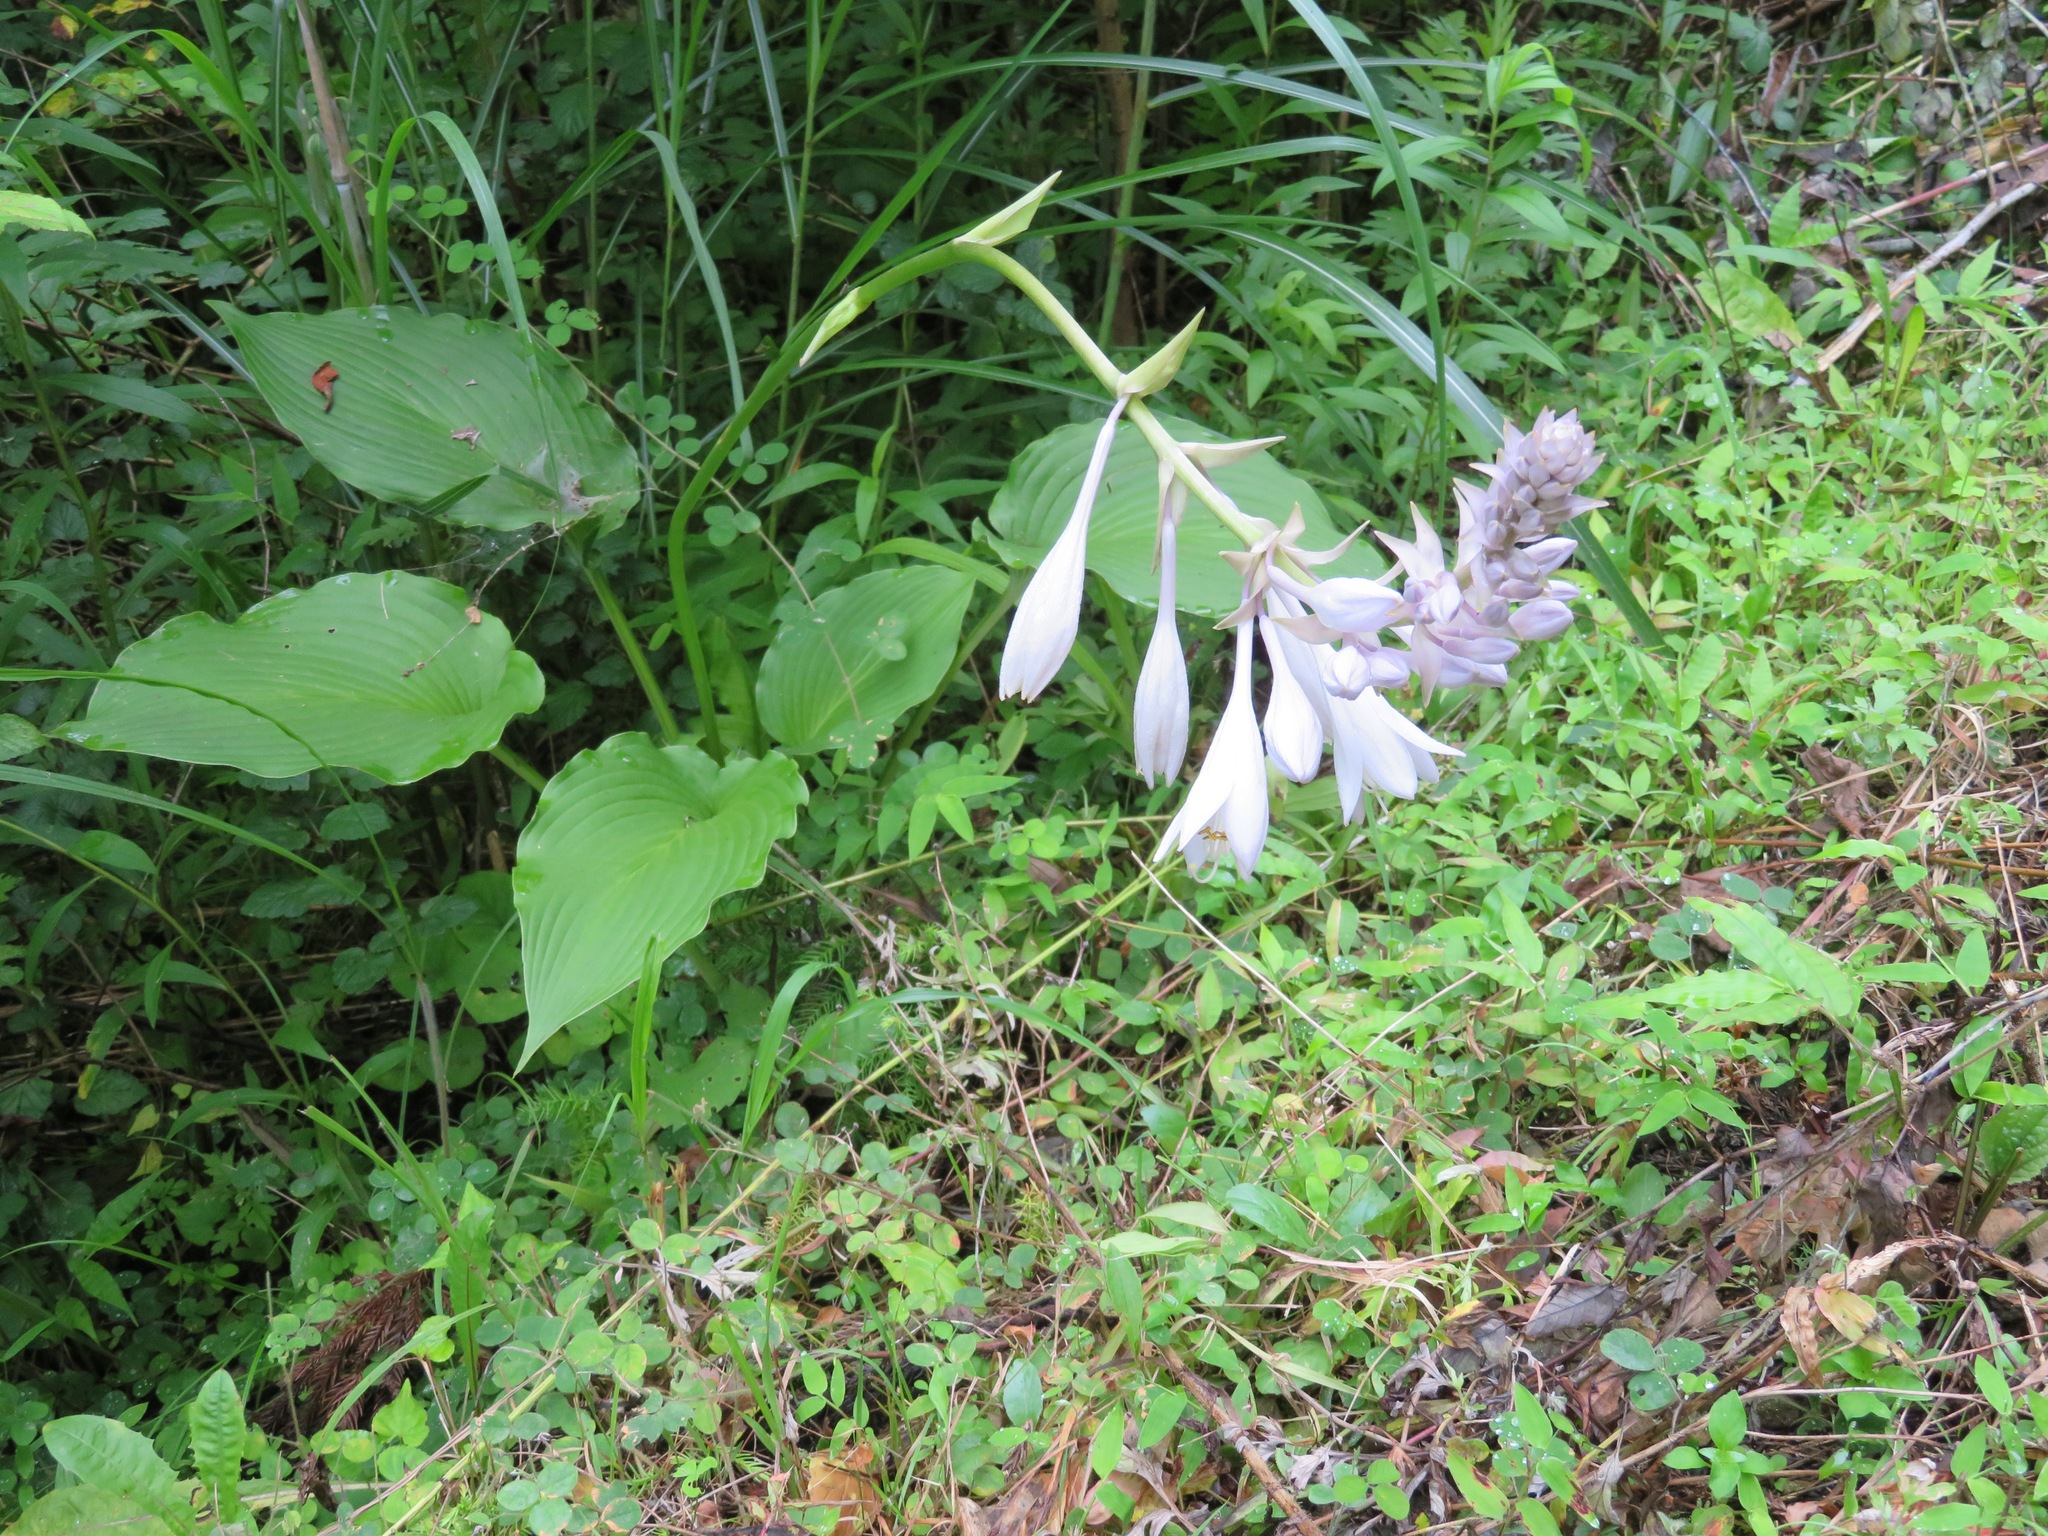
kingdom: Plantae
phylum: Tracheophyta
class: Liliopsida
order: Asparagales
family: Asparagaceae
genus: Hosta
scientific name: Hosta sieboldiana
